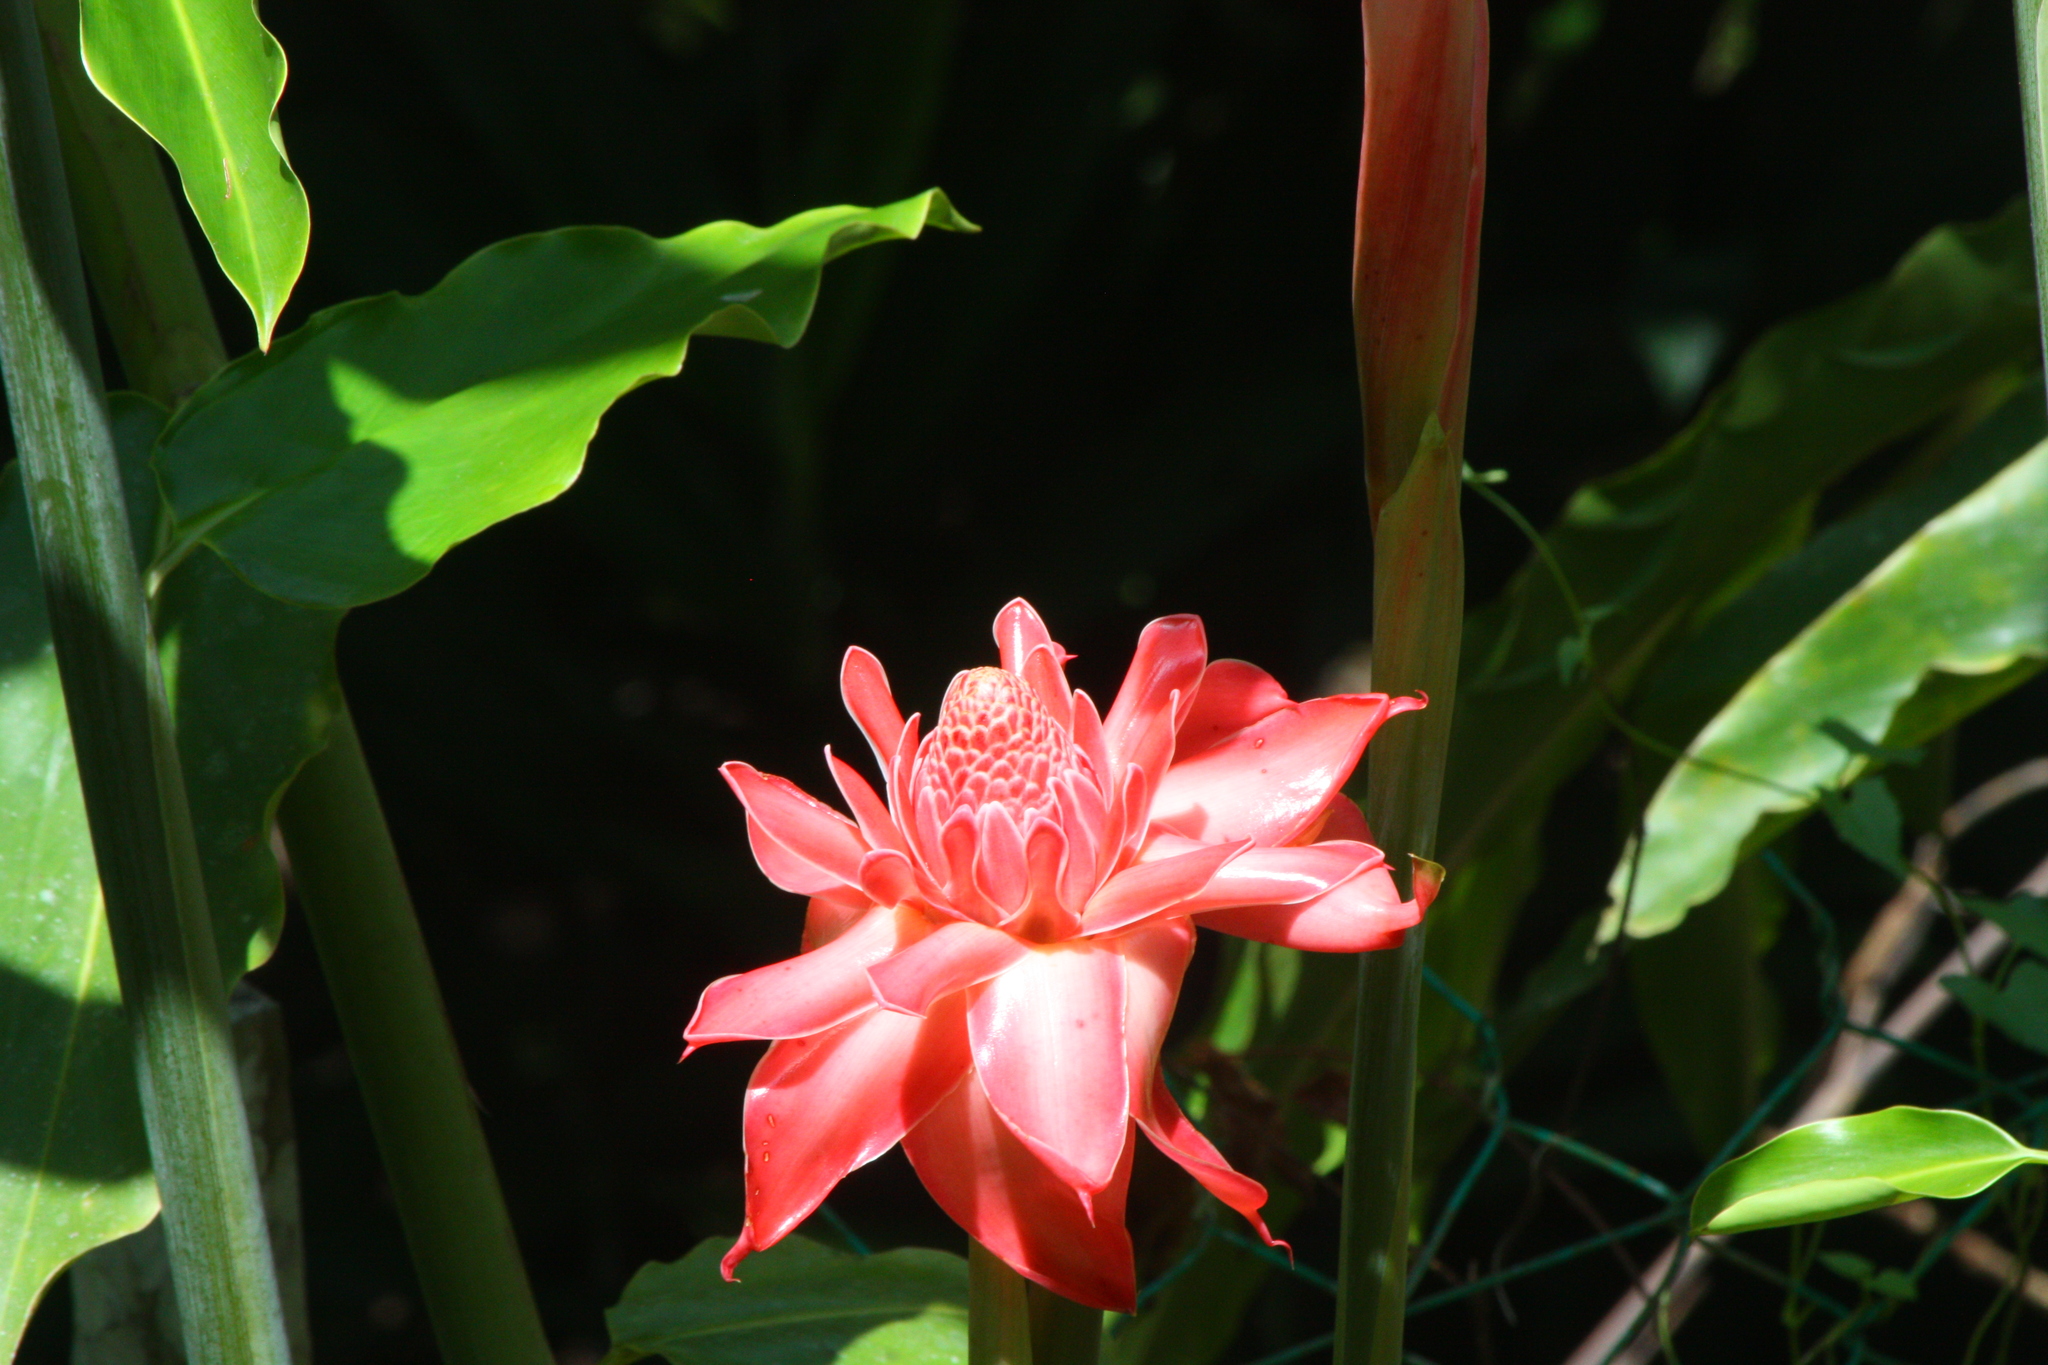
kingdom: Plantae
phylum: Tracheophyta
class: Liliopsida
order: Zingiberales
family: Zingiberaceae
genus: Etlingera
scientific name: Etlingera elatior
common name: Philippine waxflower
